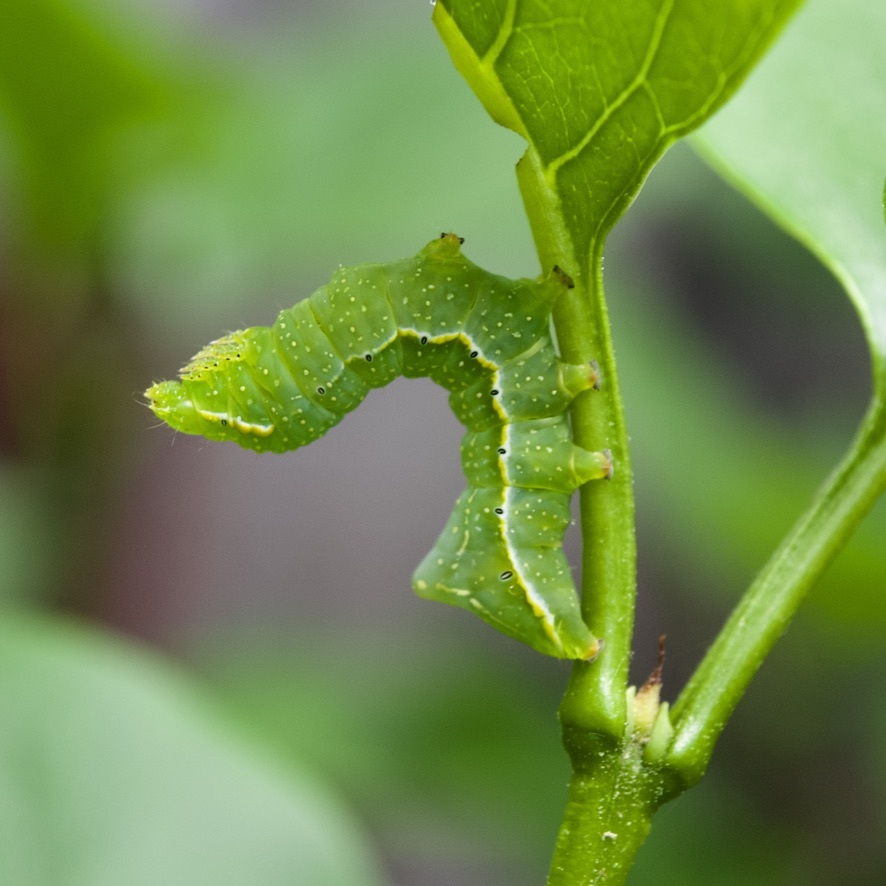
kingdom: Animalia
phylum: Arthropoda
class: Insecta
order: Lepidoptera
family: Noctuidae
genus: Amphipyra
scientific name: Amphipyra pyramidoides
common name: American copper underwing
